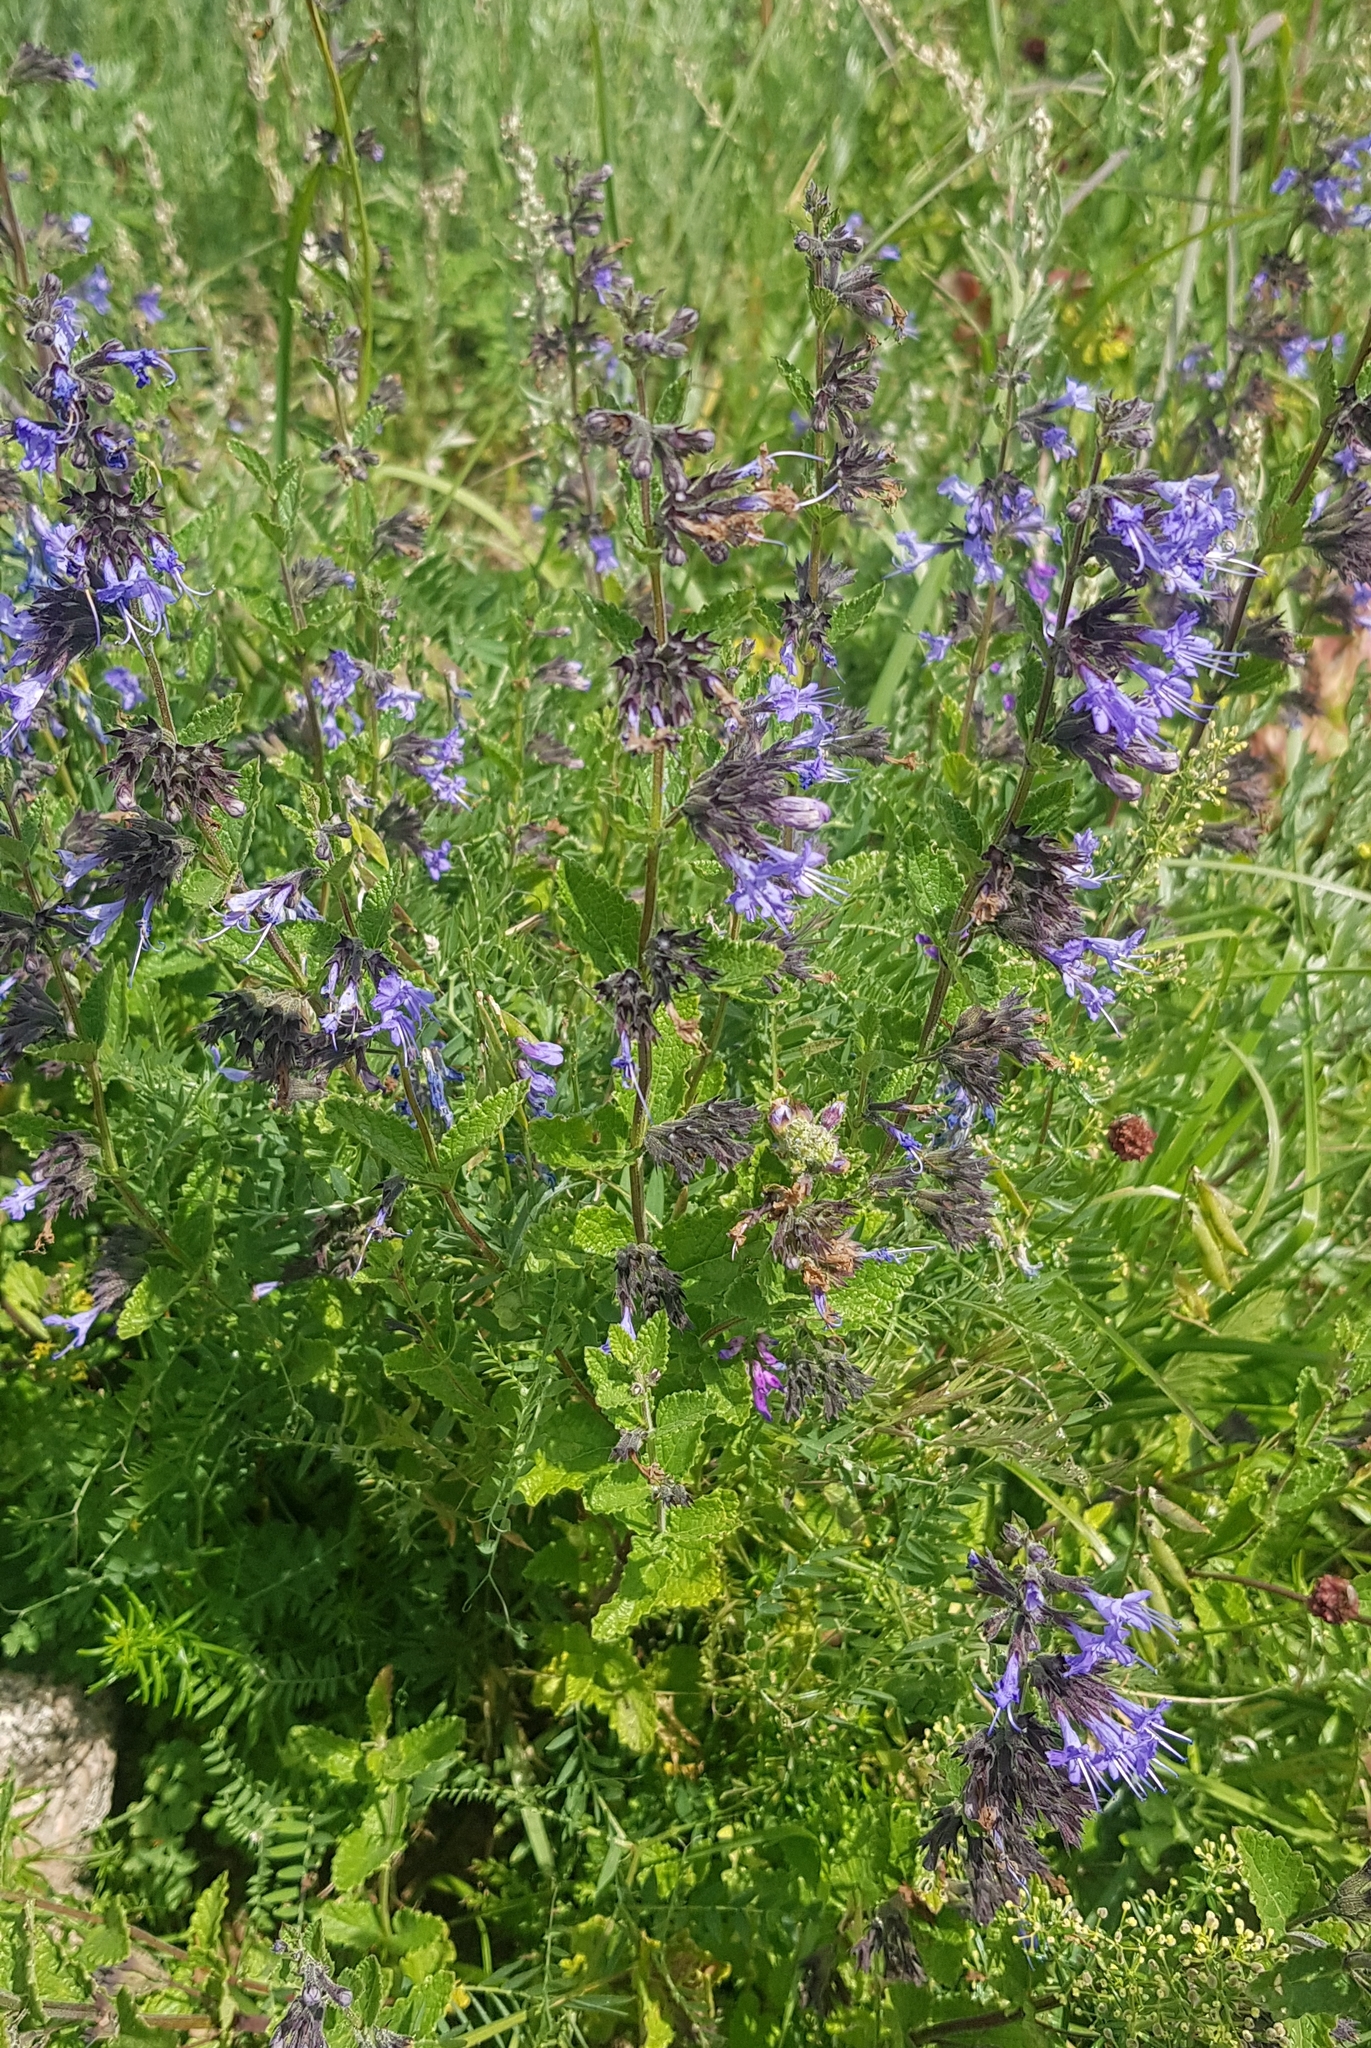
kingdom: Plantae
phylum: Tracheophyta
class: Magnoliopsida
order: Lamiales
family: Lamiaceae
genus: Nepeta
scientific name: Nepeta lophanthus
